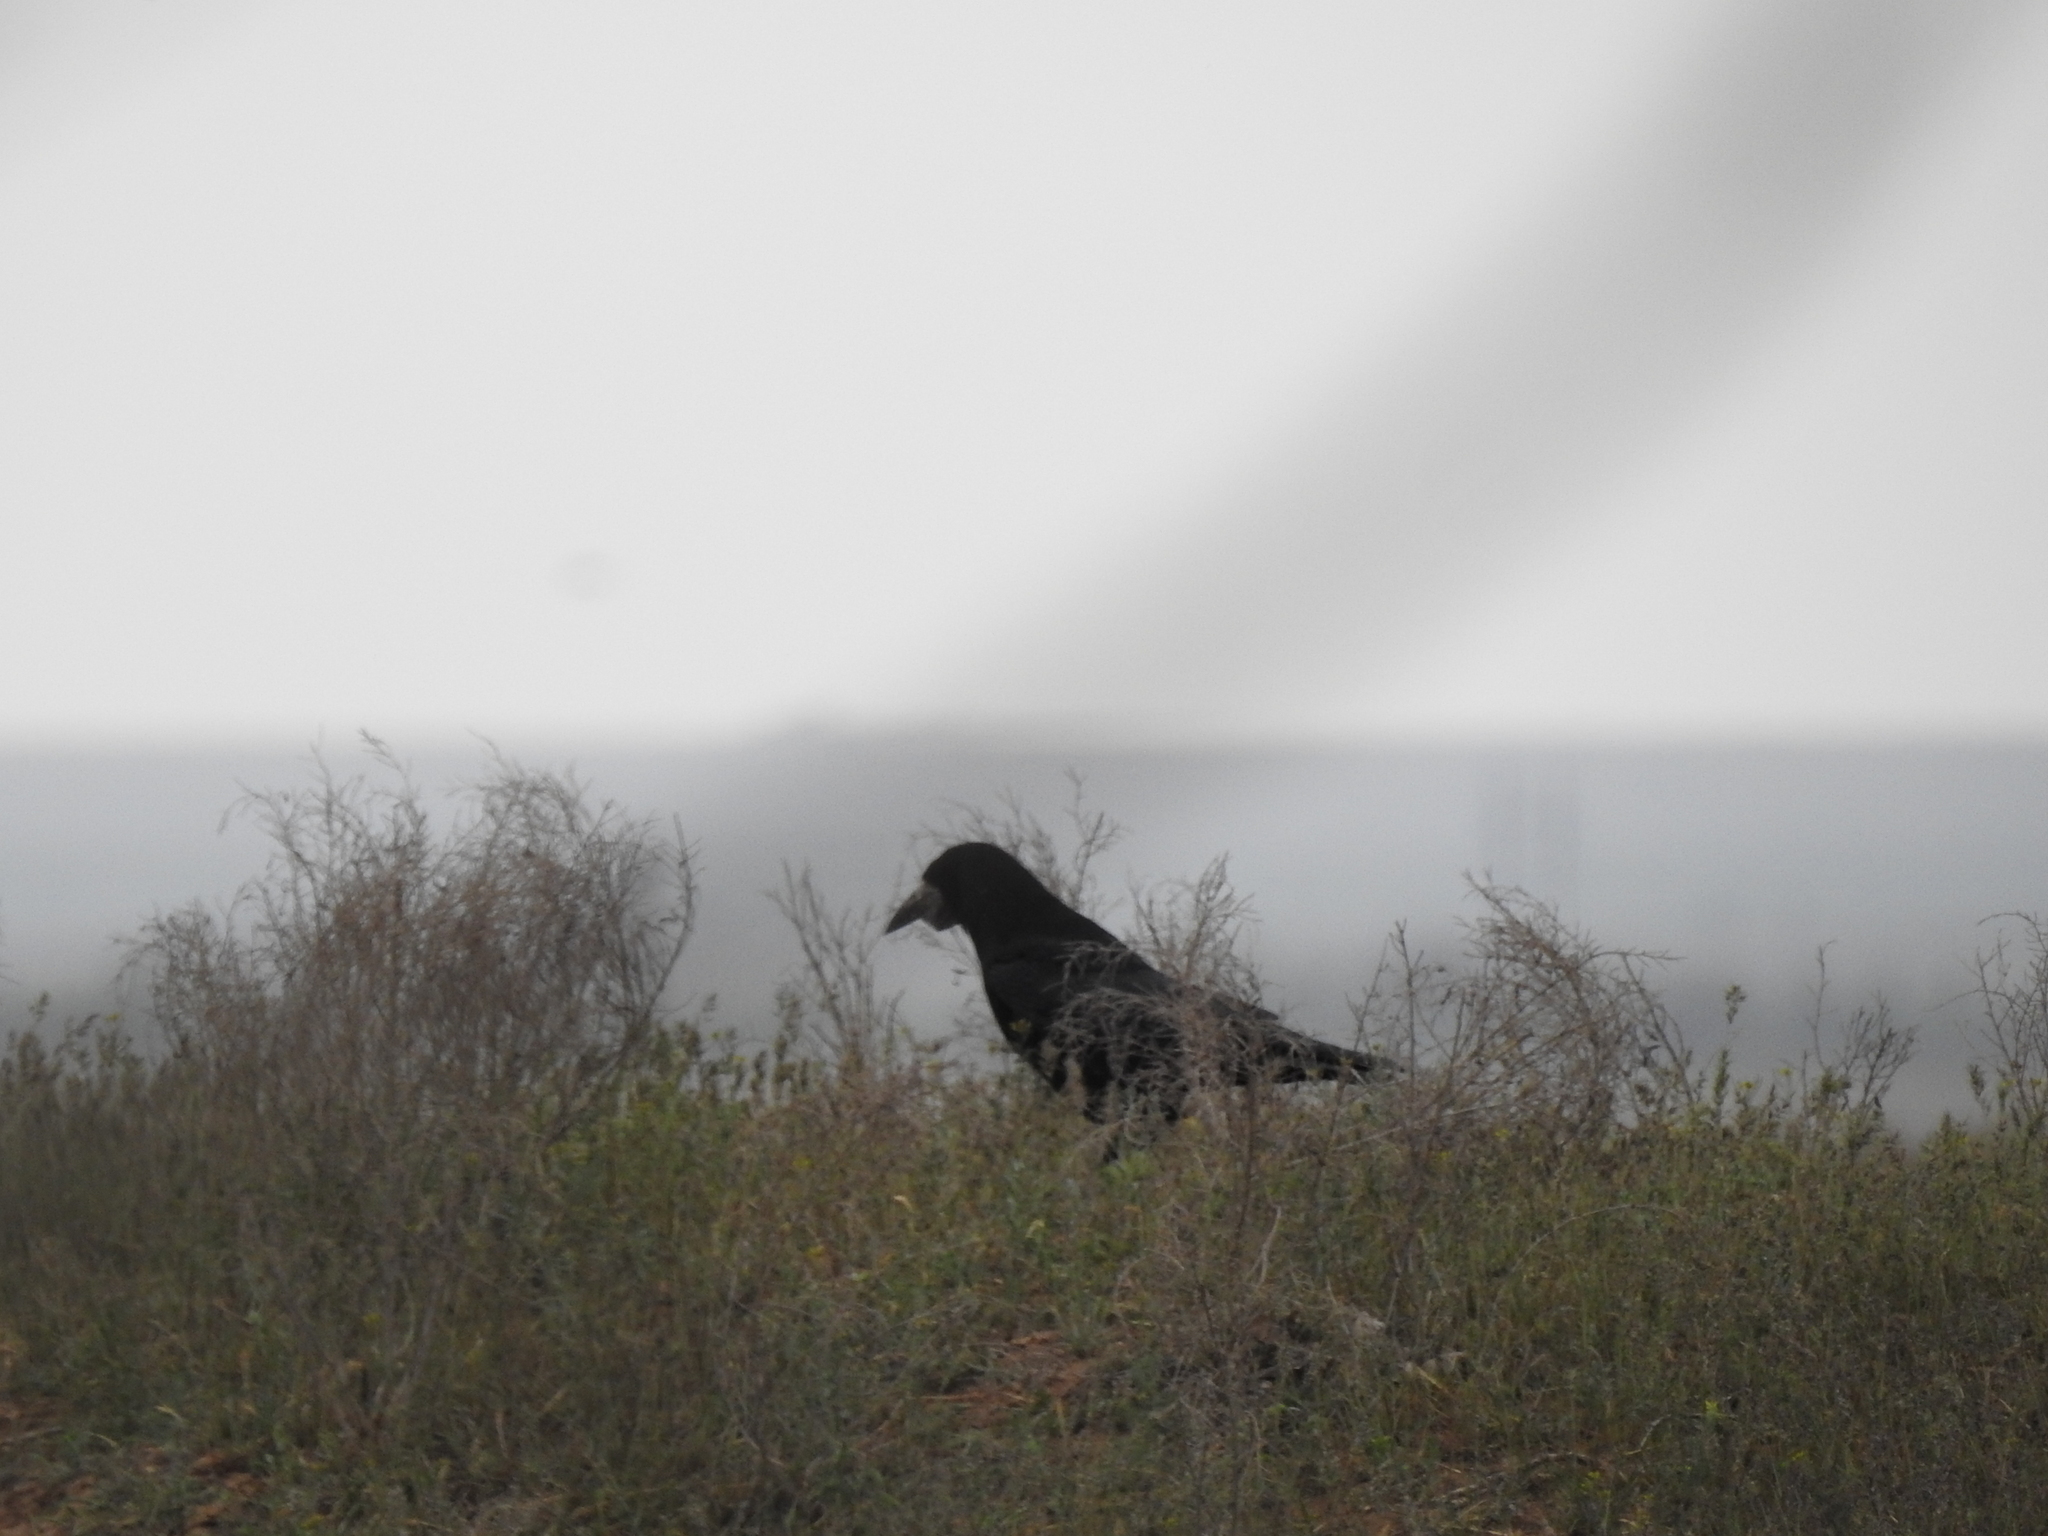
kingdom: Animalia
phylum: Chordata
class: Aves
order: Passeriformes
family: Corvidae
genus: Corvus
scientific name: Corvus frugilegus
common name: Rook
